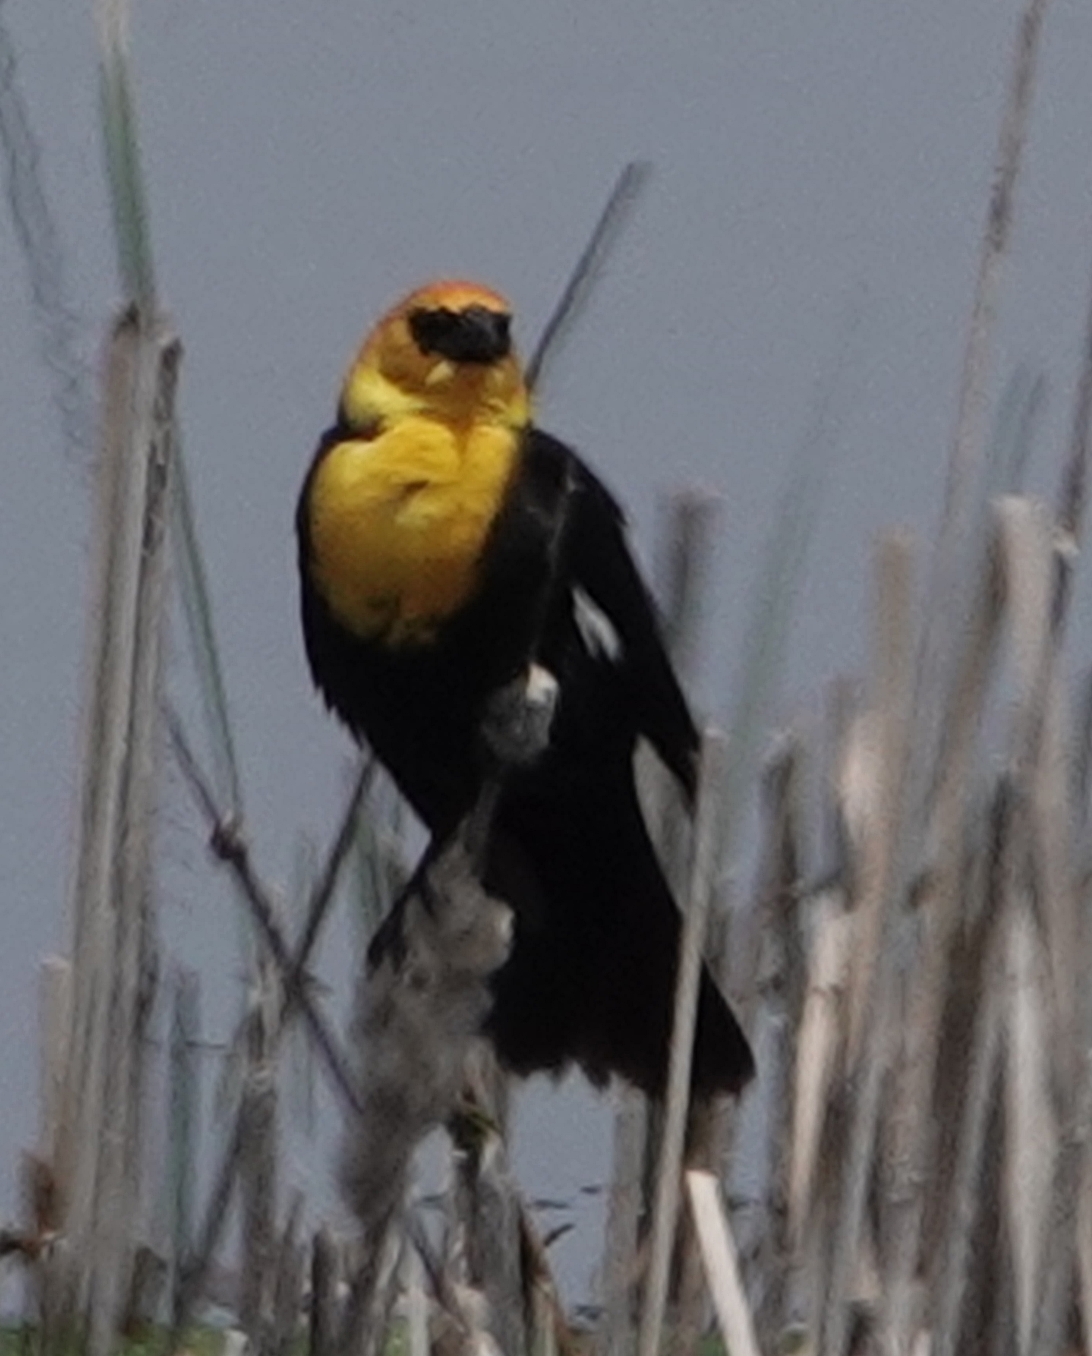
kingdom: Animalia
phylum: Chordata
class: Aves
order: Passeriformes
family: Icteridae
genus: Xanthocephalus
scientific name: Xanthocephalus xanthocephalus
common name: Yellow-headed blackbird
